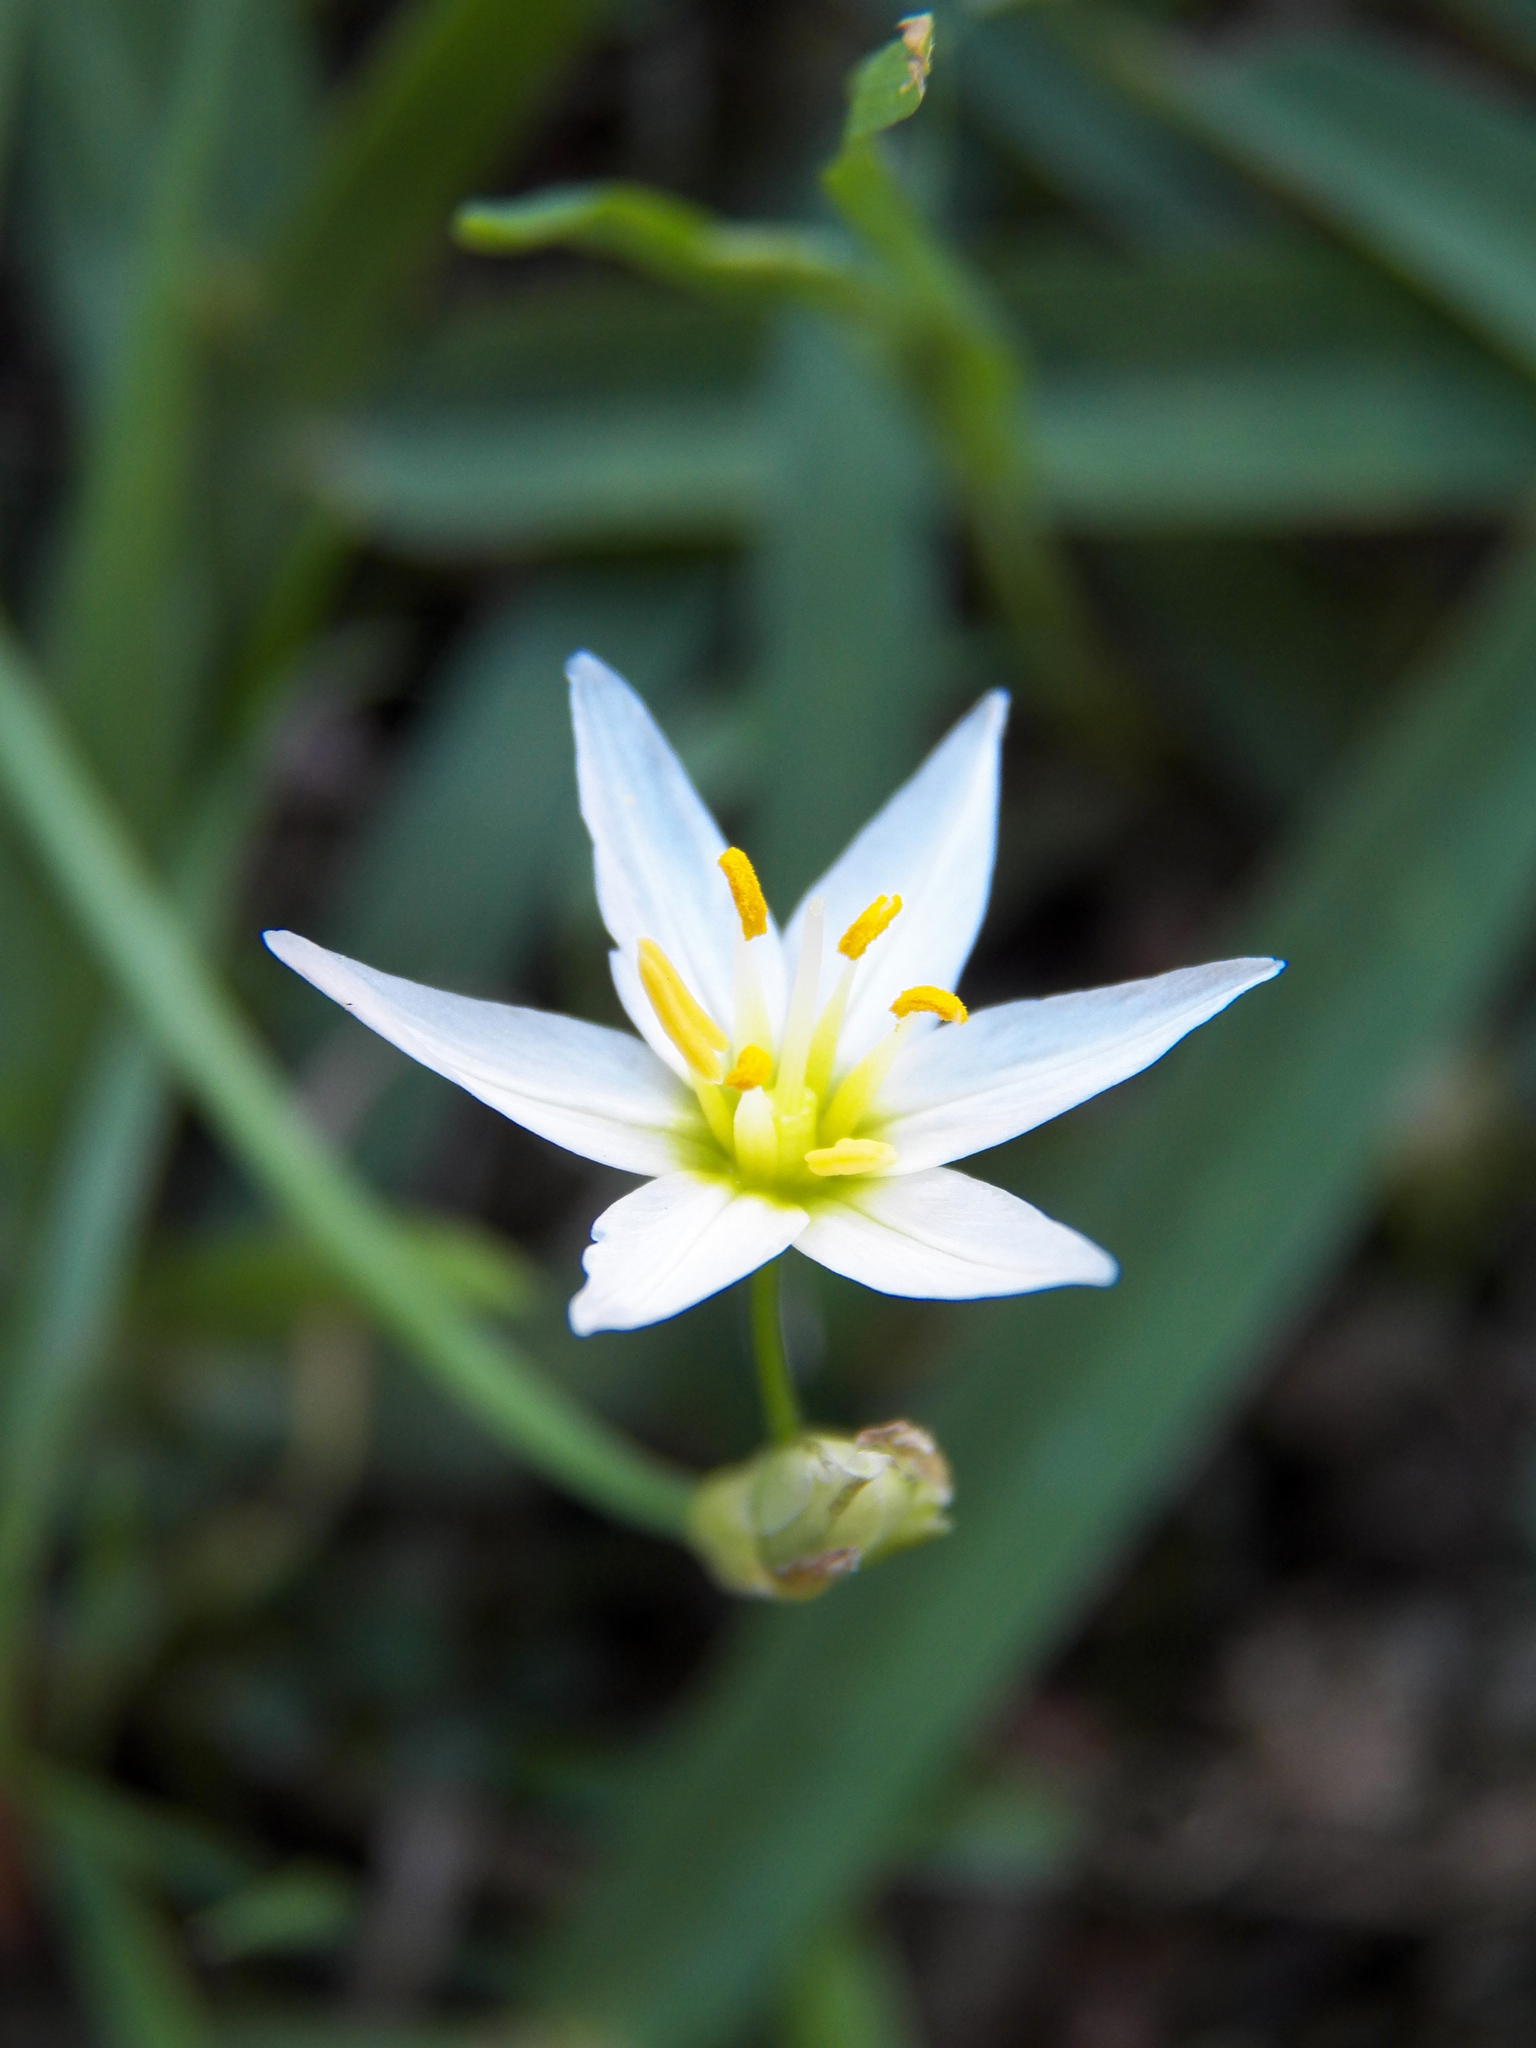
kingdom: Plantae
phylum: Tracheophyta
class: Liliopsida
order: Asparagales
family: Amaryllidaceae
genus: Nothoscordum
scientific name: Nothoscordum bivalve
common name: Crow-poison
